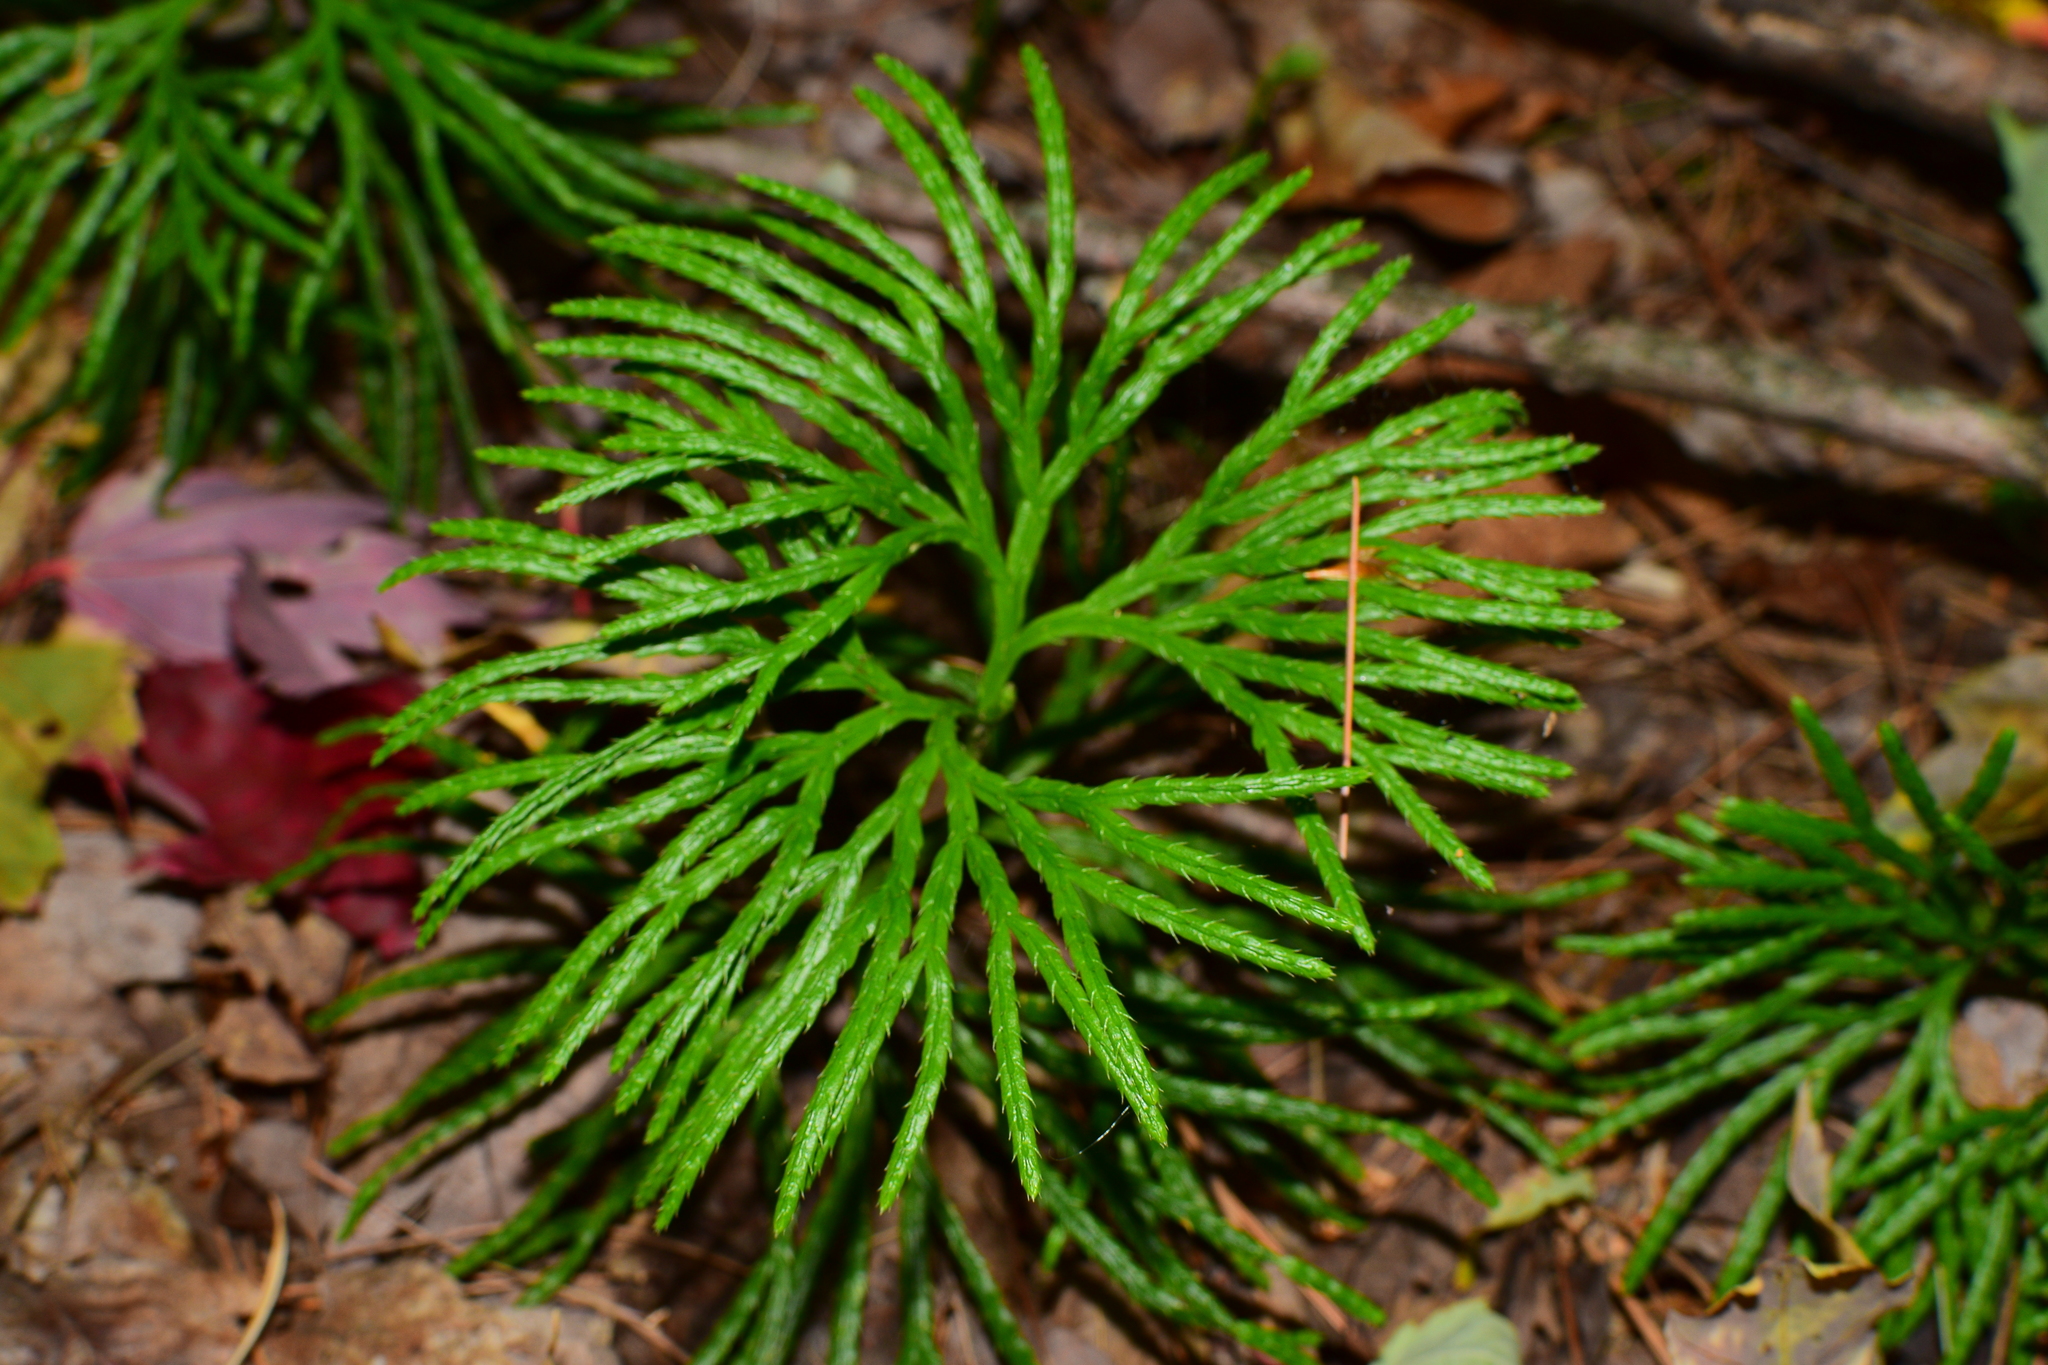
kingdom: Plantae
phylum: Tracheophyta
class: Lycopodiopsida
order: Lycopodiales
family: Lycopodiaceae
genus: Diphasiastrum
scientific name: Diphasiastrum digitatum
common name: Southern running-pine
